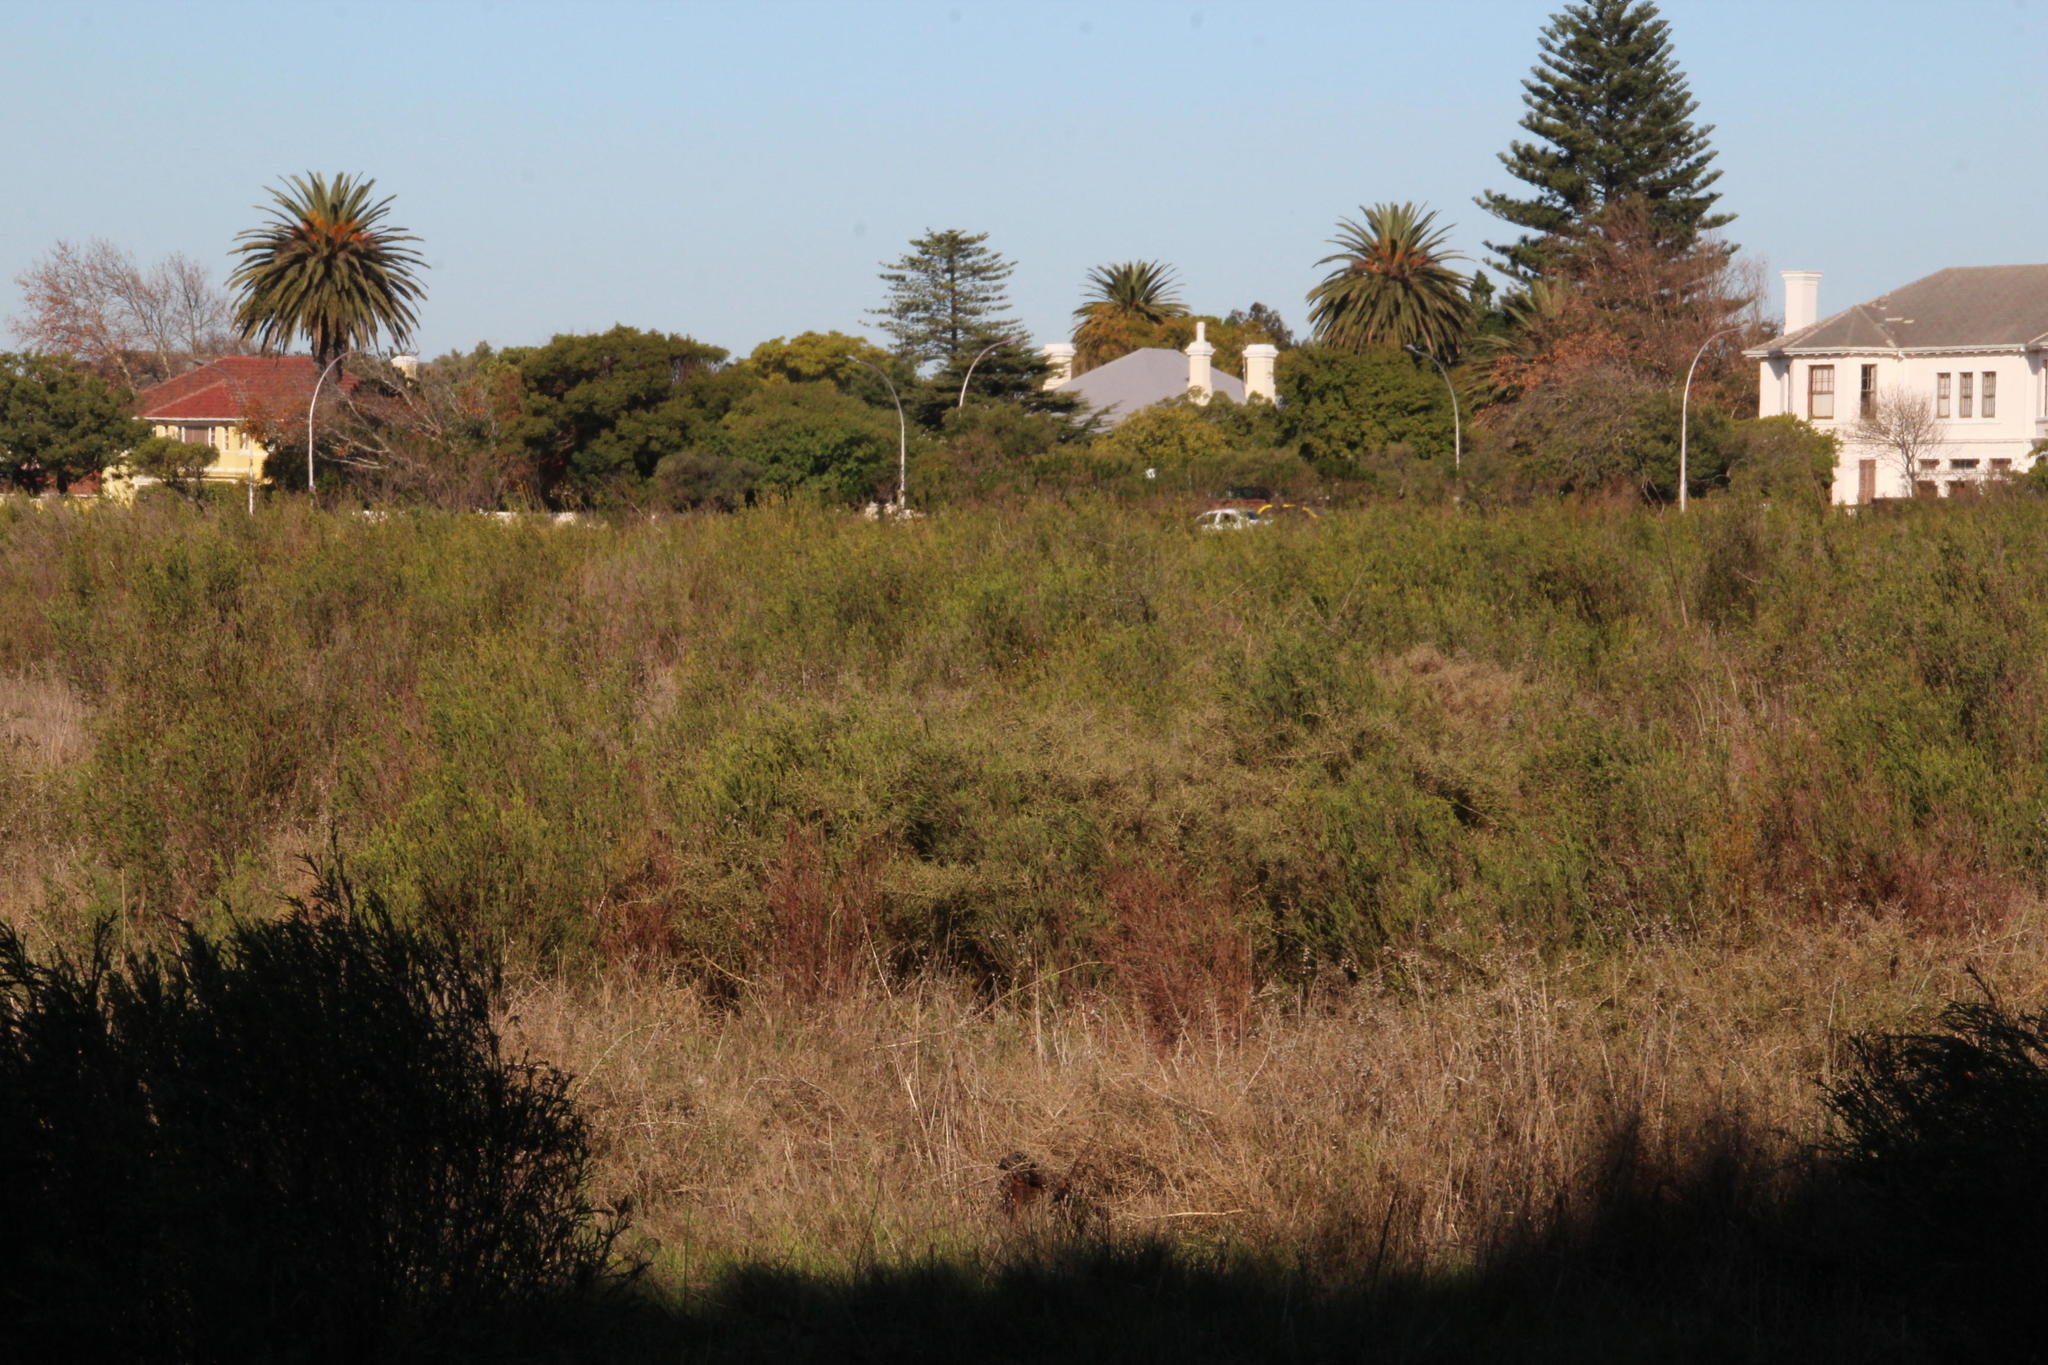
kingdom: Plantae
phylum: Tracheophyta
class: Magnoliopsida
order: Malvales
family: Thymelaeaceae
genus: Passerina
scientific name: Passerina corymbosa
